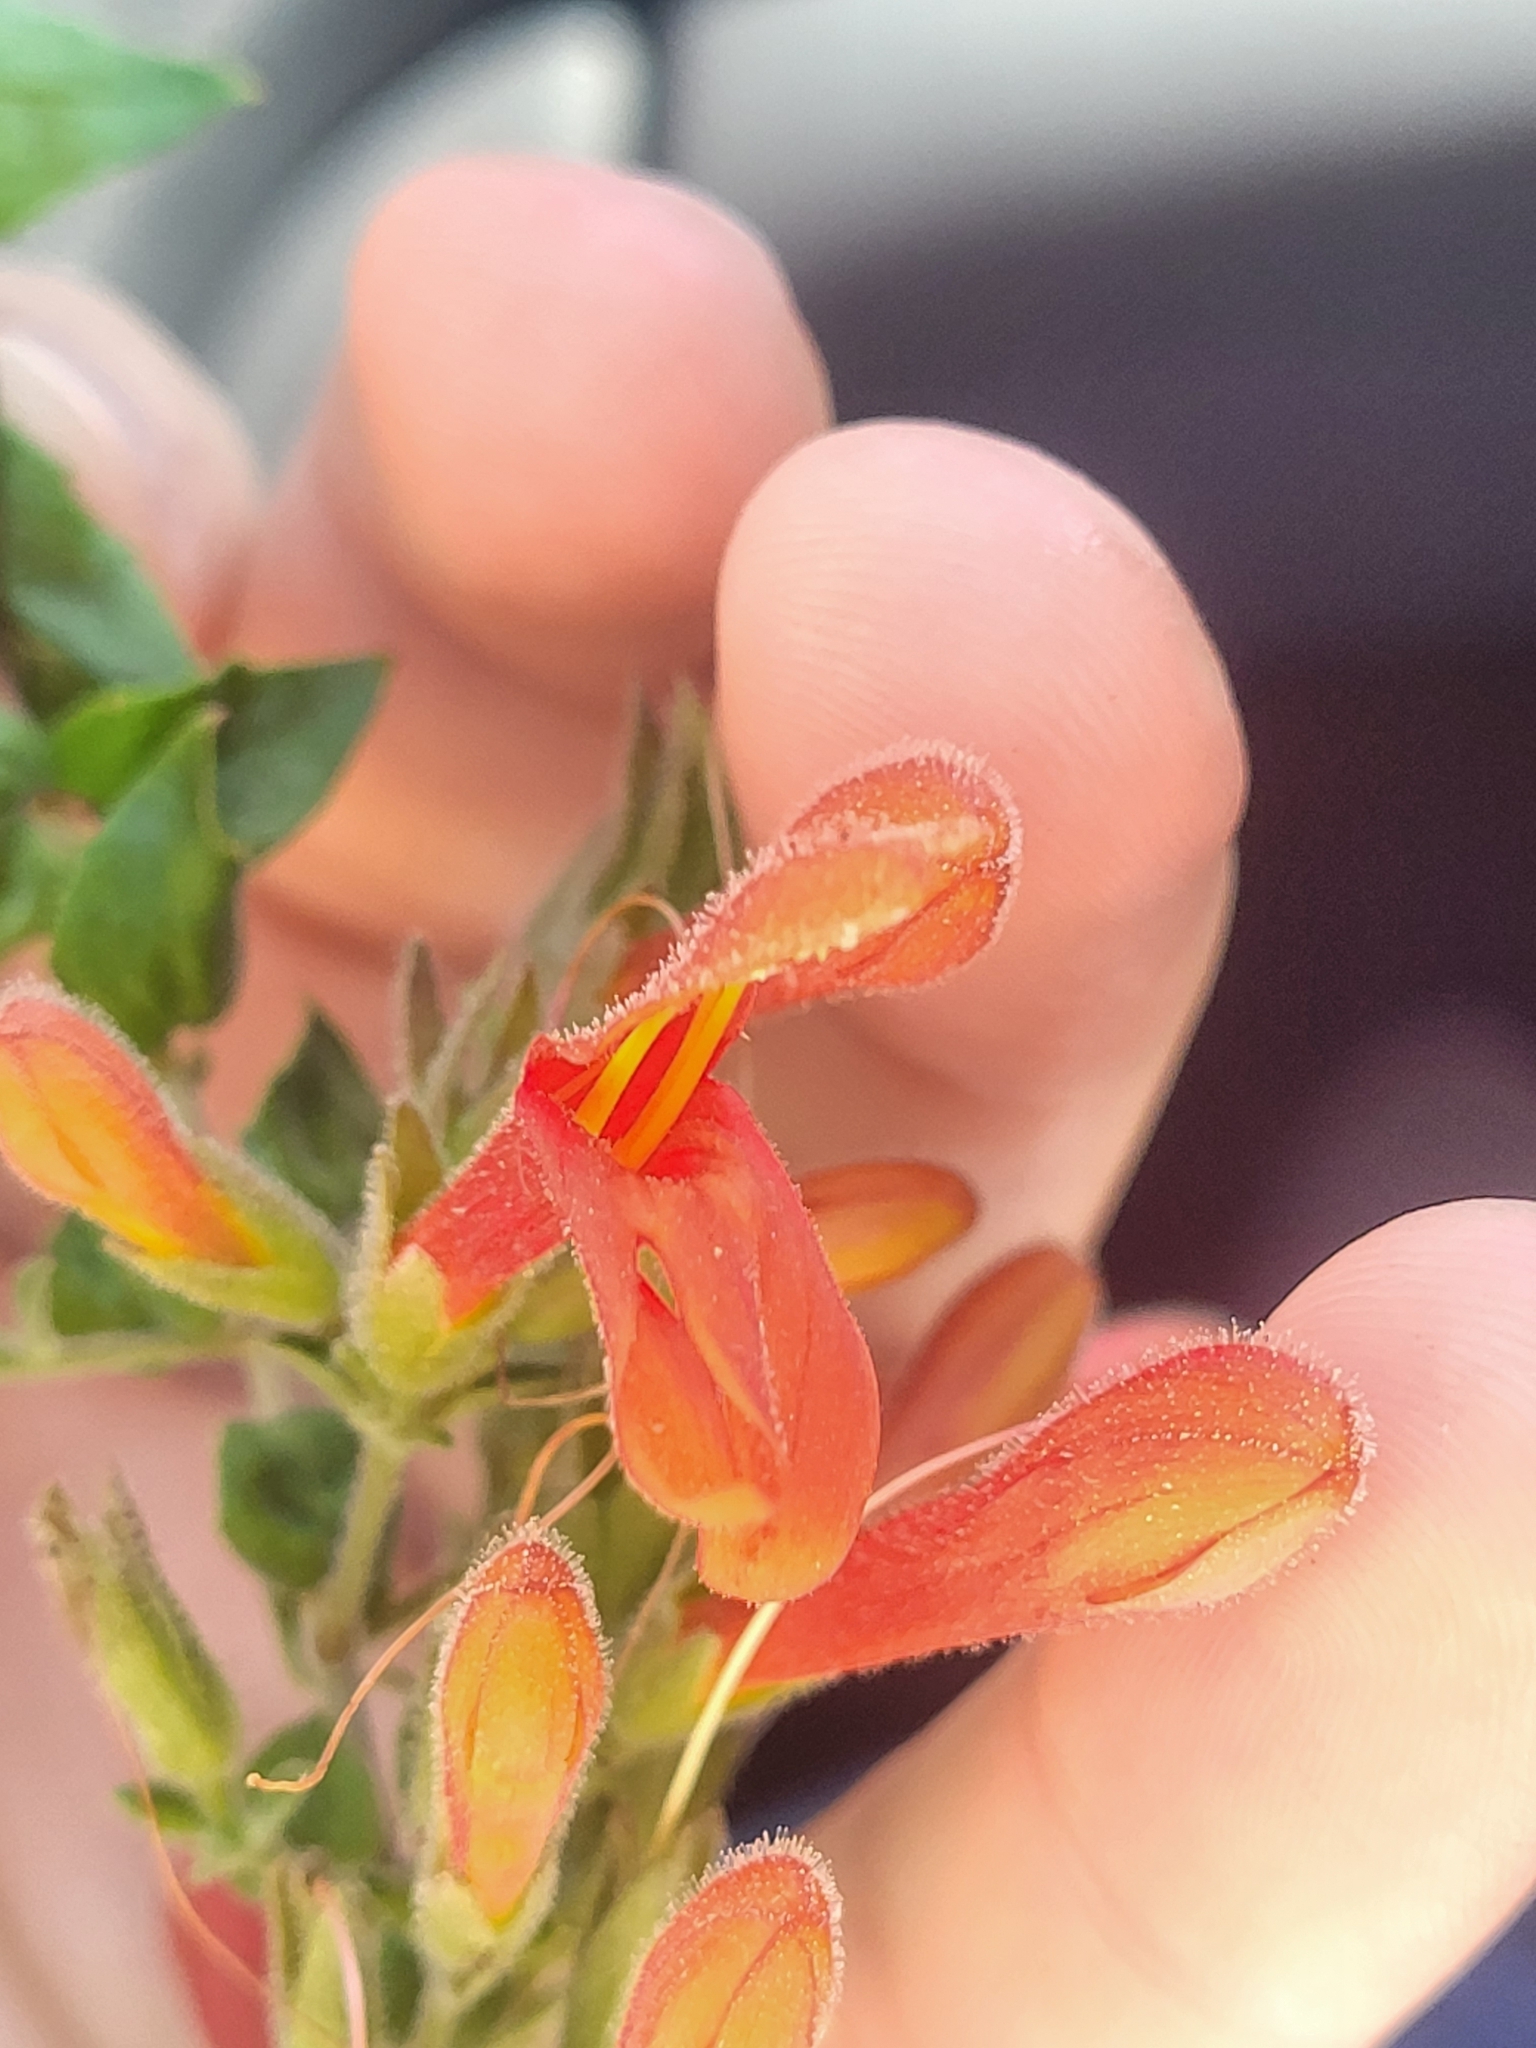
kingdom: Plantae
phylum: Tracheophyta
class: Magnoliopsida
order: Lamiales
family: Plantaginaceae
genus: Keckiella
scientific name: Keckiella cordifolia
